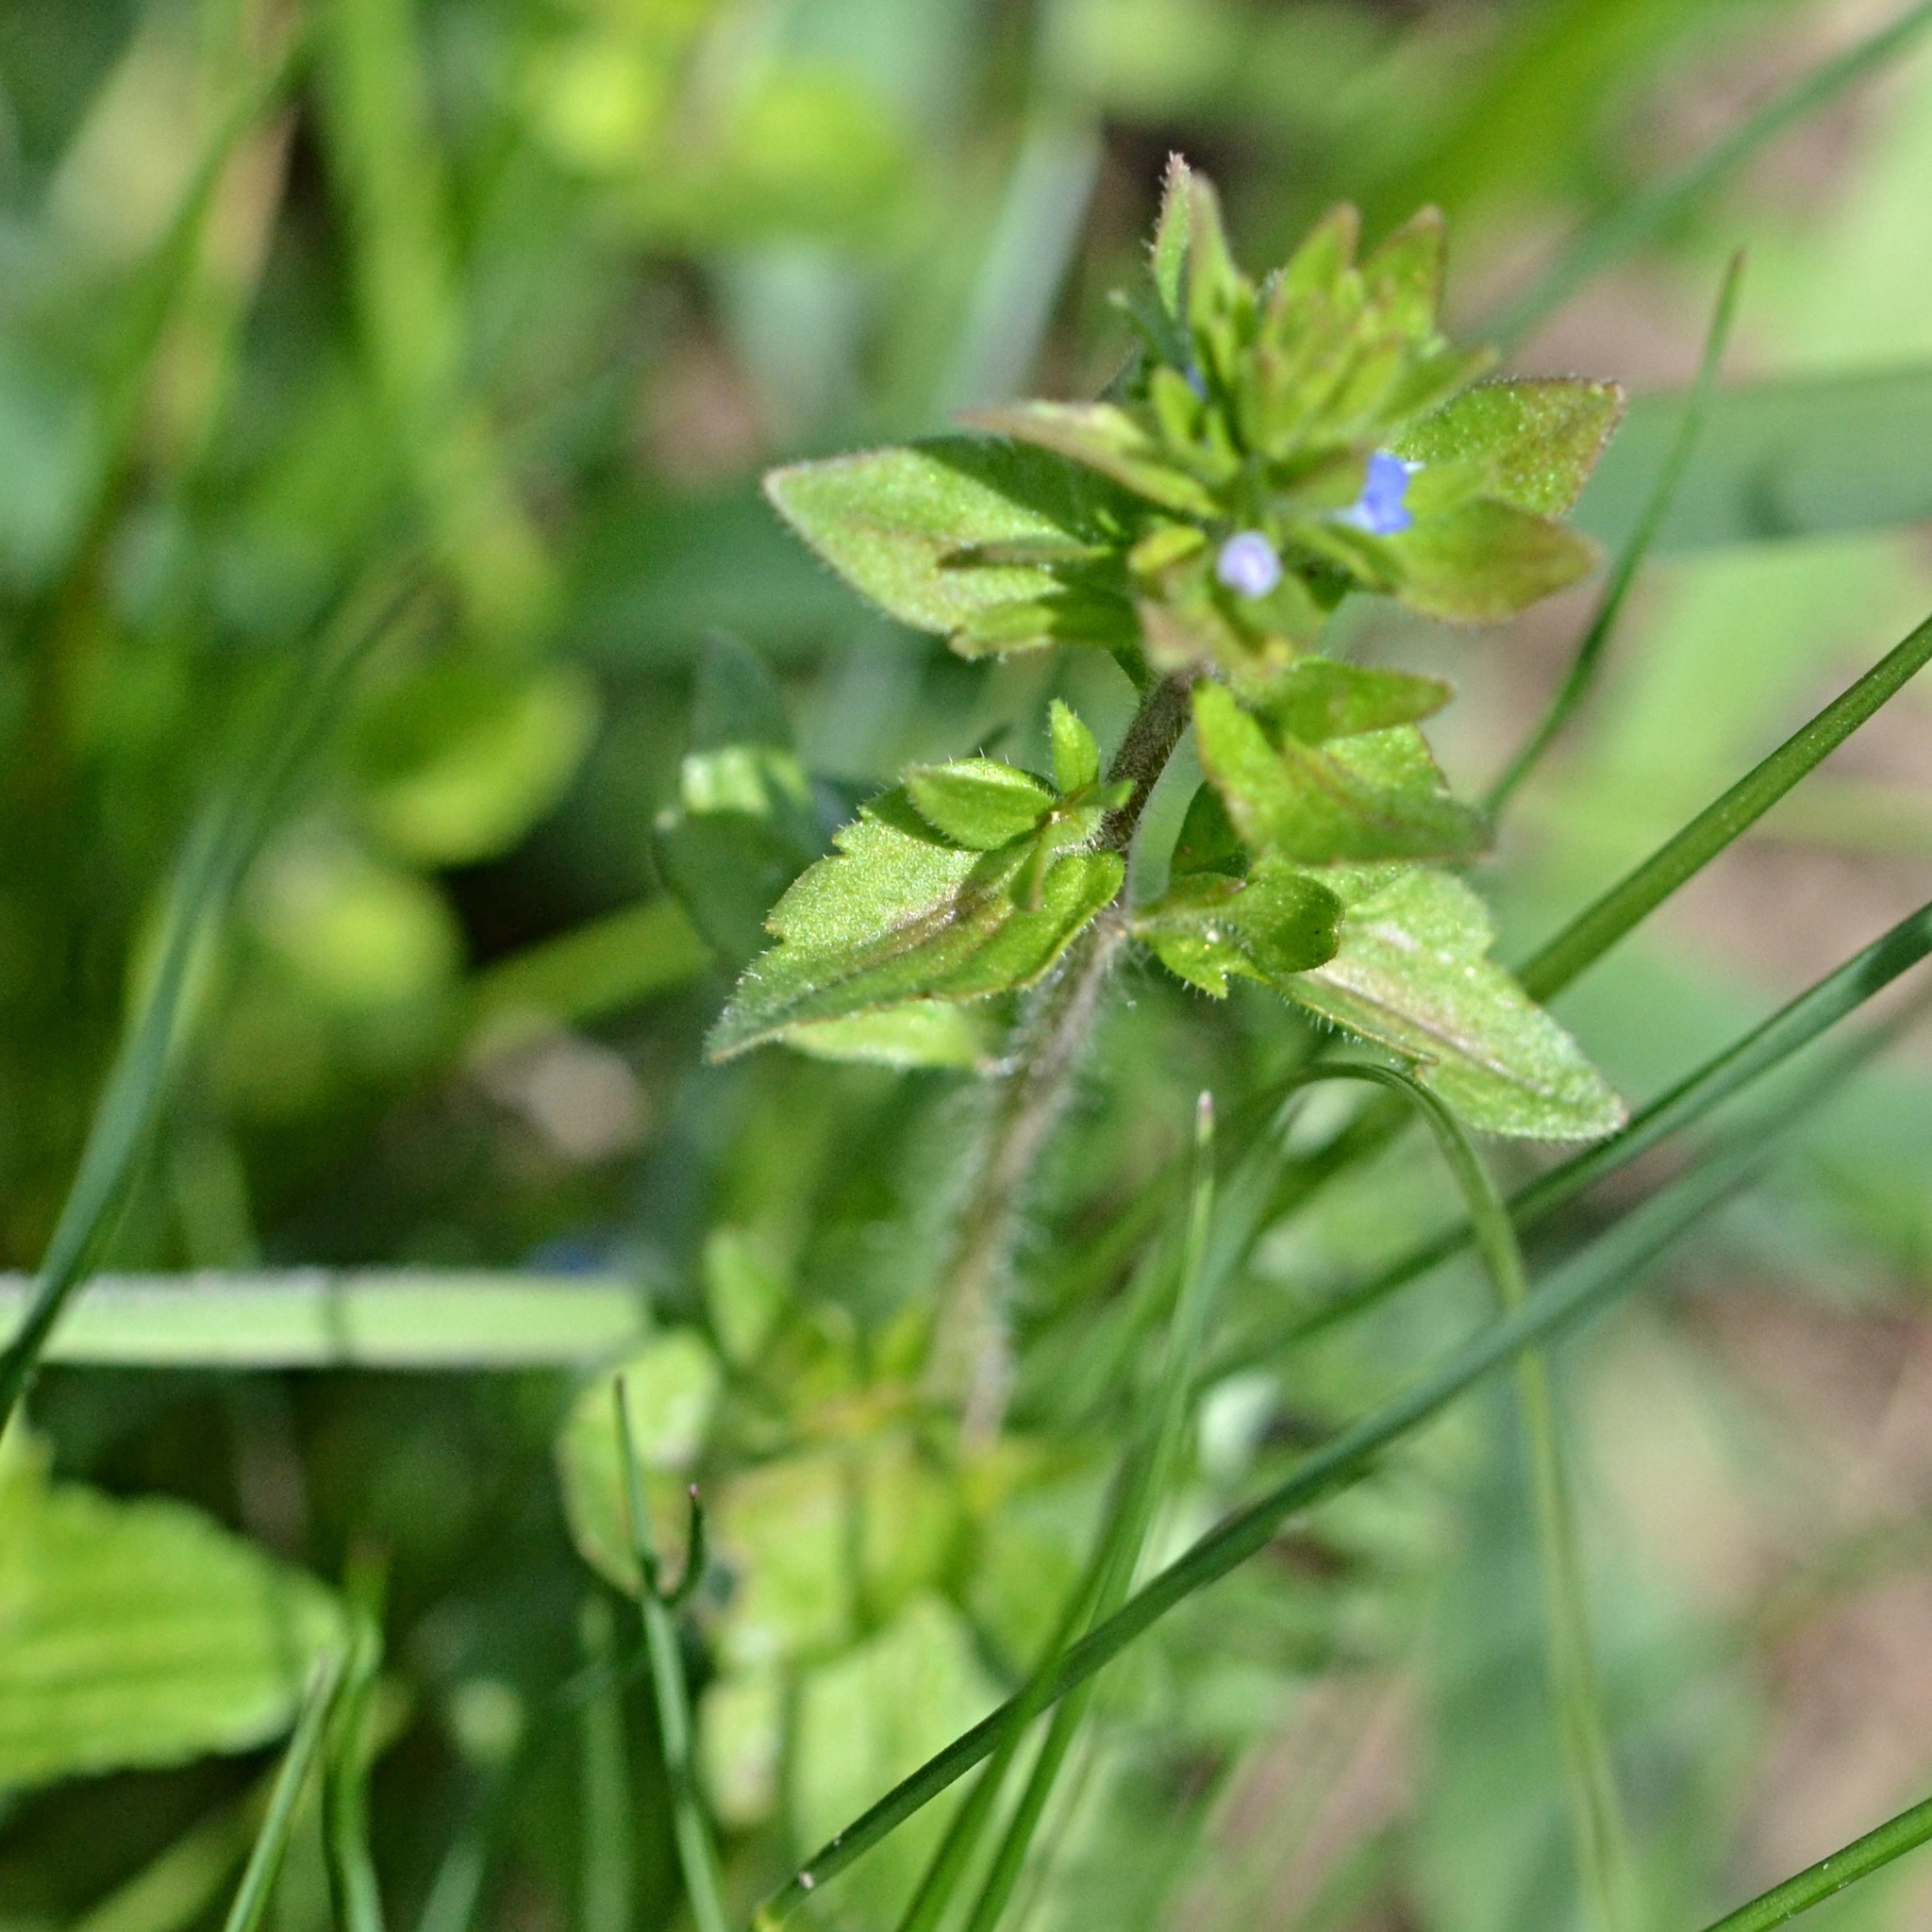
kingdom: Plantae
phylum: Tracheophyta
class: Magnoliopsida
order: Lamiales
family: Plantaginaceae
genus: Veronica
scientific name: Veronica arvensis
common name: Corn speedwell
